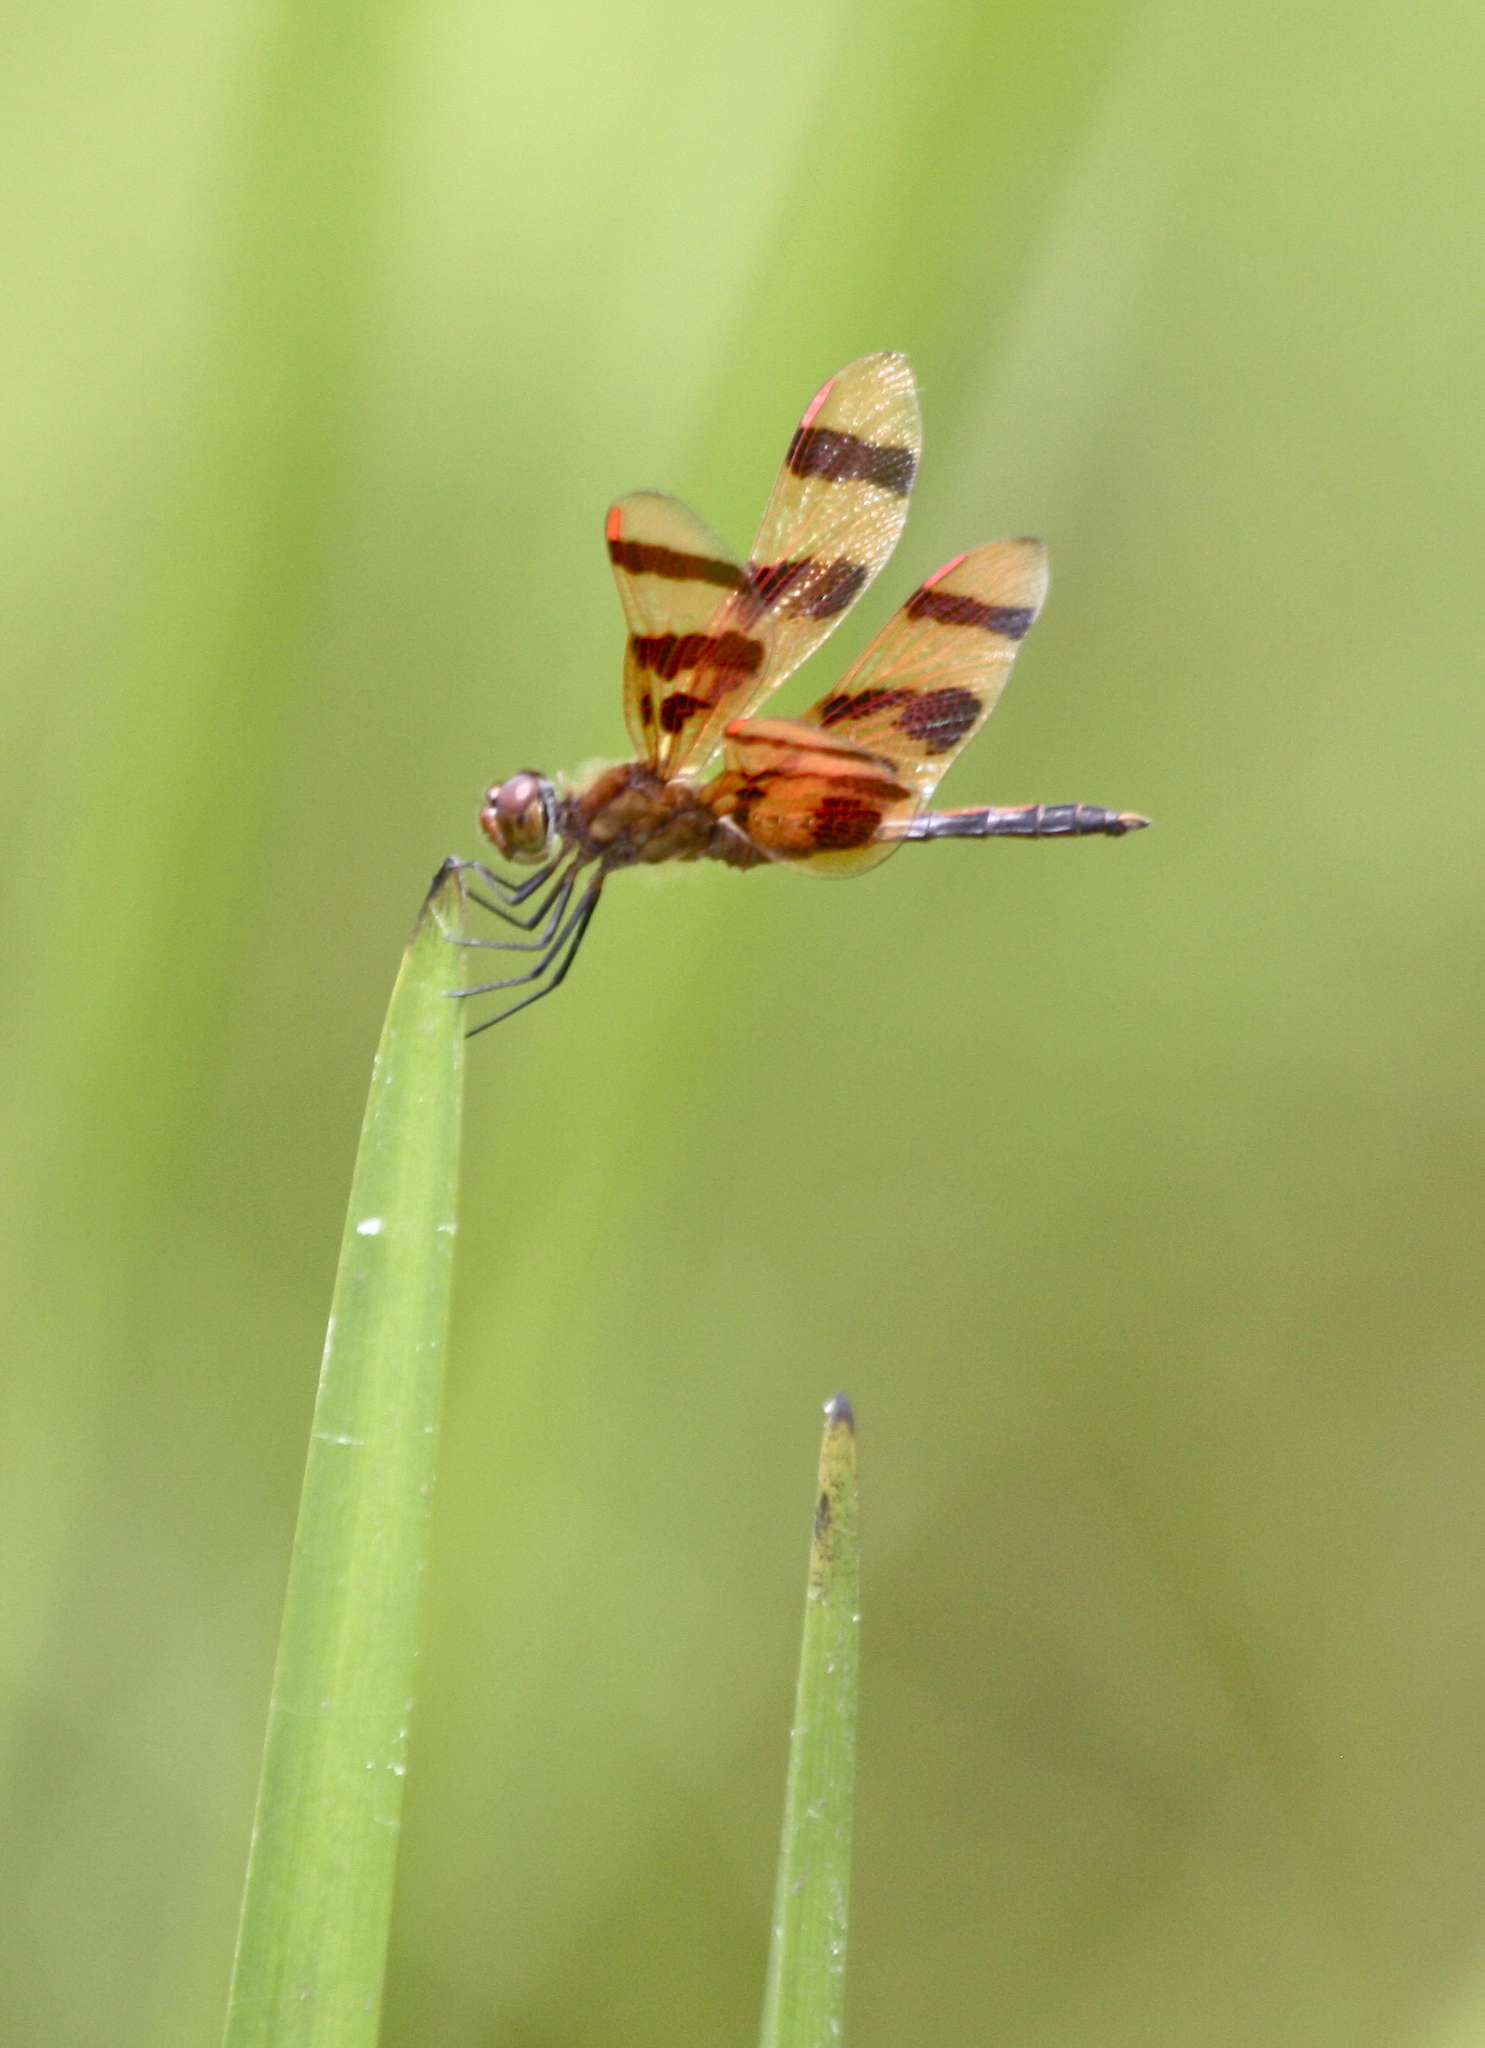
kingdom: Animalia
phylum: Arthropoda
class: Insecta
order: Odonata
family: Libellulidae
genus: Celithemis
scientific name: Celithemis eponina
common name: Halloween pennant
